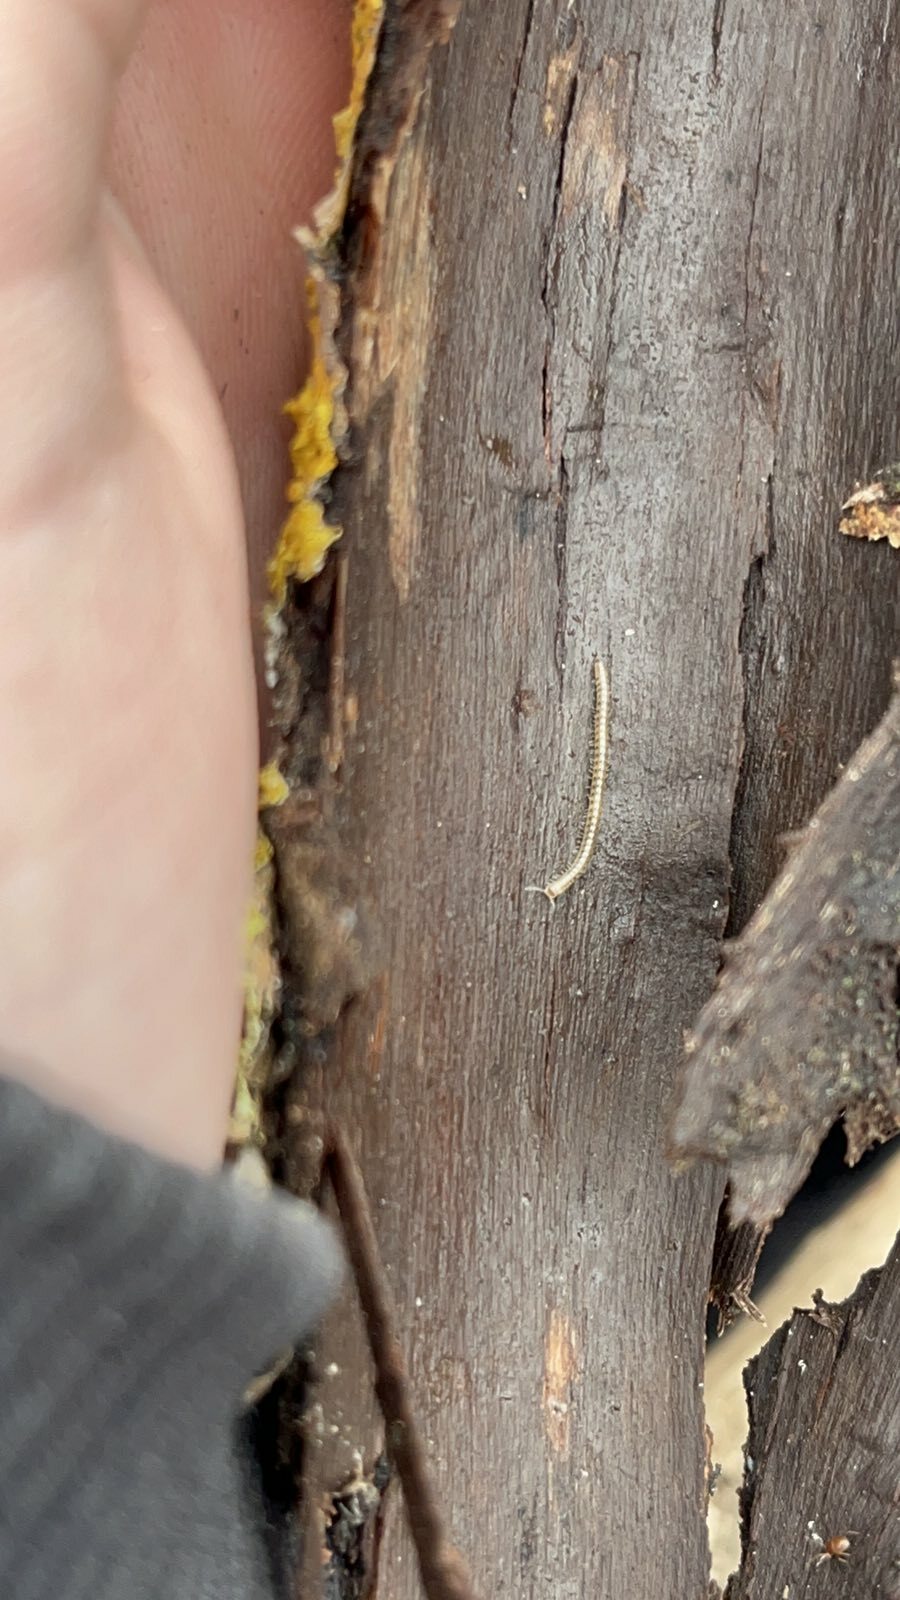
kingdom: Animalia
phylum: Arthropoda
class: Diplopoda
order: Julida
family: Blaniulidae
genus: Blaniulus
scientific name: Blaniulus guttulatus
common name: Spotted snake millipede
